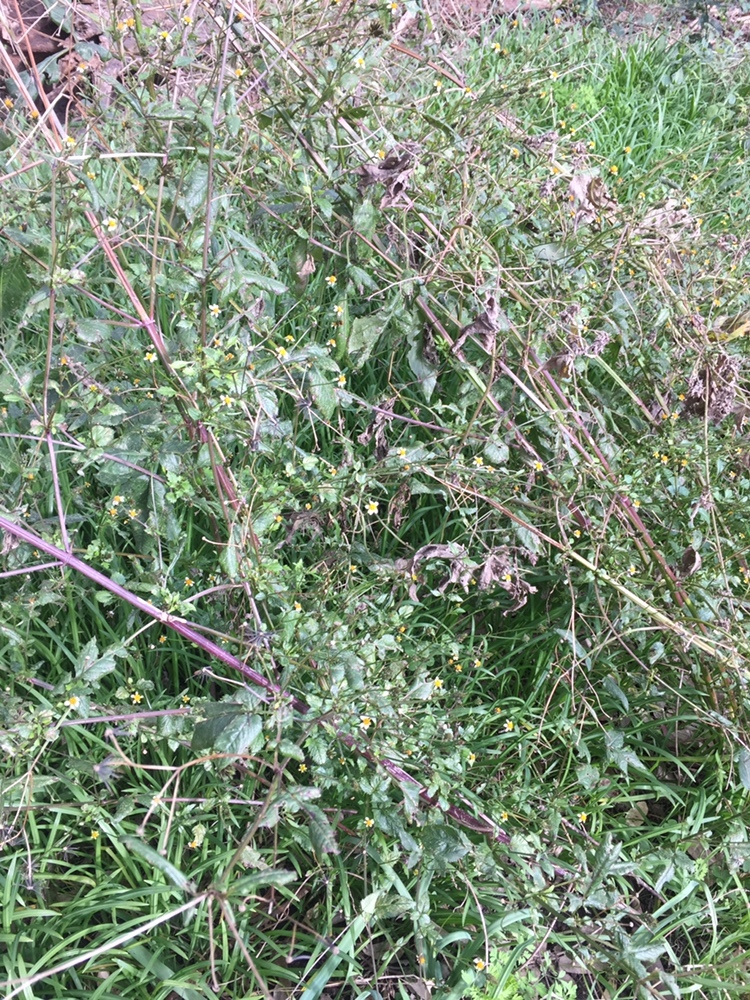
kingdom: Plantae
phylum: Tracheophyta
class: Magnoliopsida
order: Asterales
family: Asteraceae
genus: Bidens
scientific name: Bidens pilosa
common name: Black-jack
